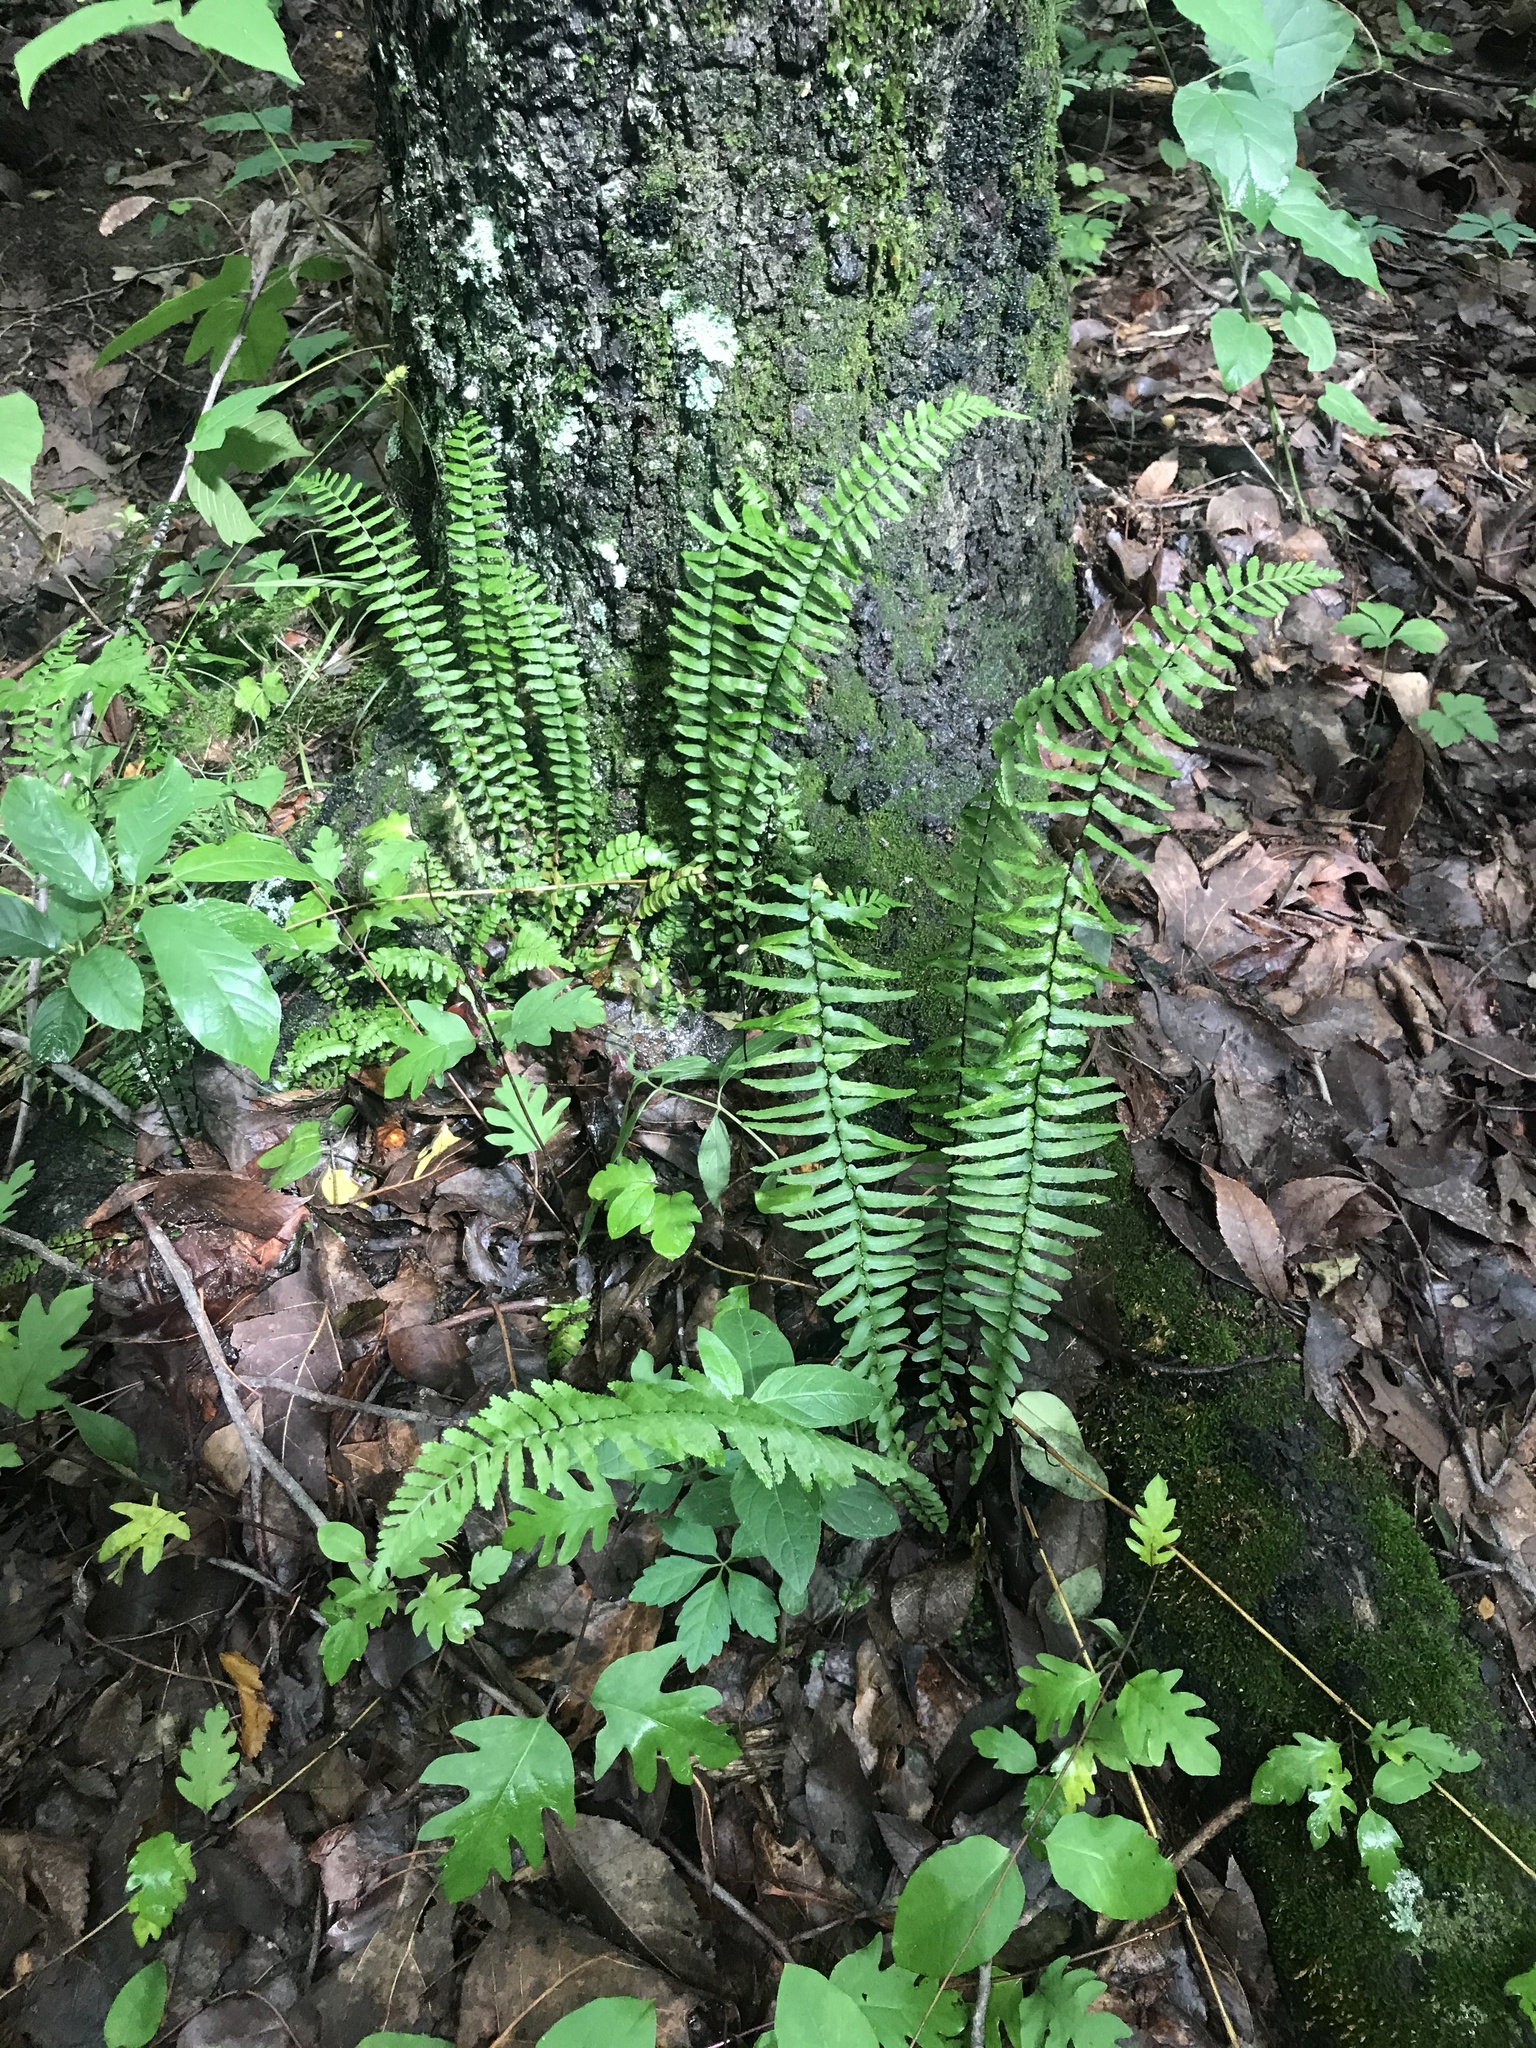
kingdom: Plantae
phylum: Tracheophyta
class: Polypodiopsida
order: Polypodiales
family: Aspleniaceae
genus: Asplenium
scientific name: Asplenium platyneuron
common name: Ebony spleenwort
